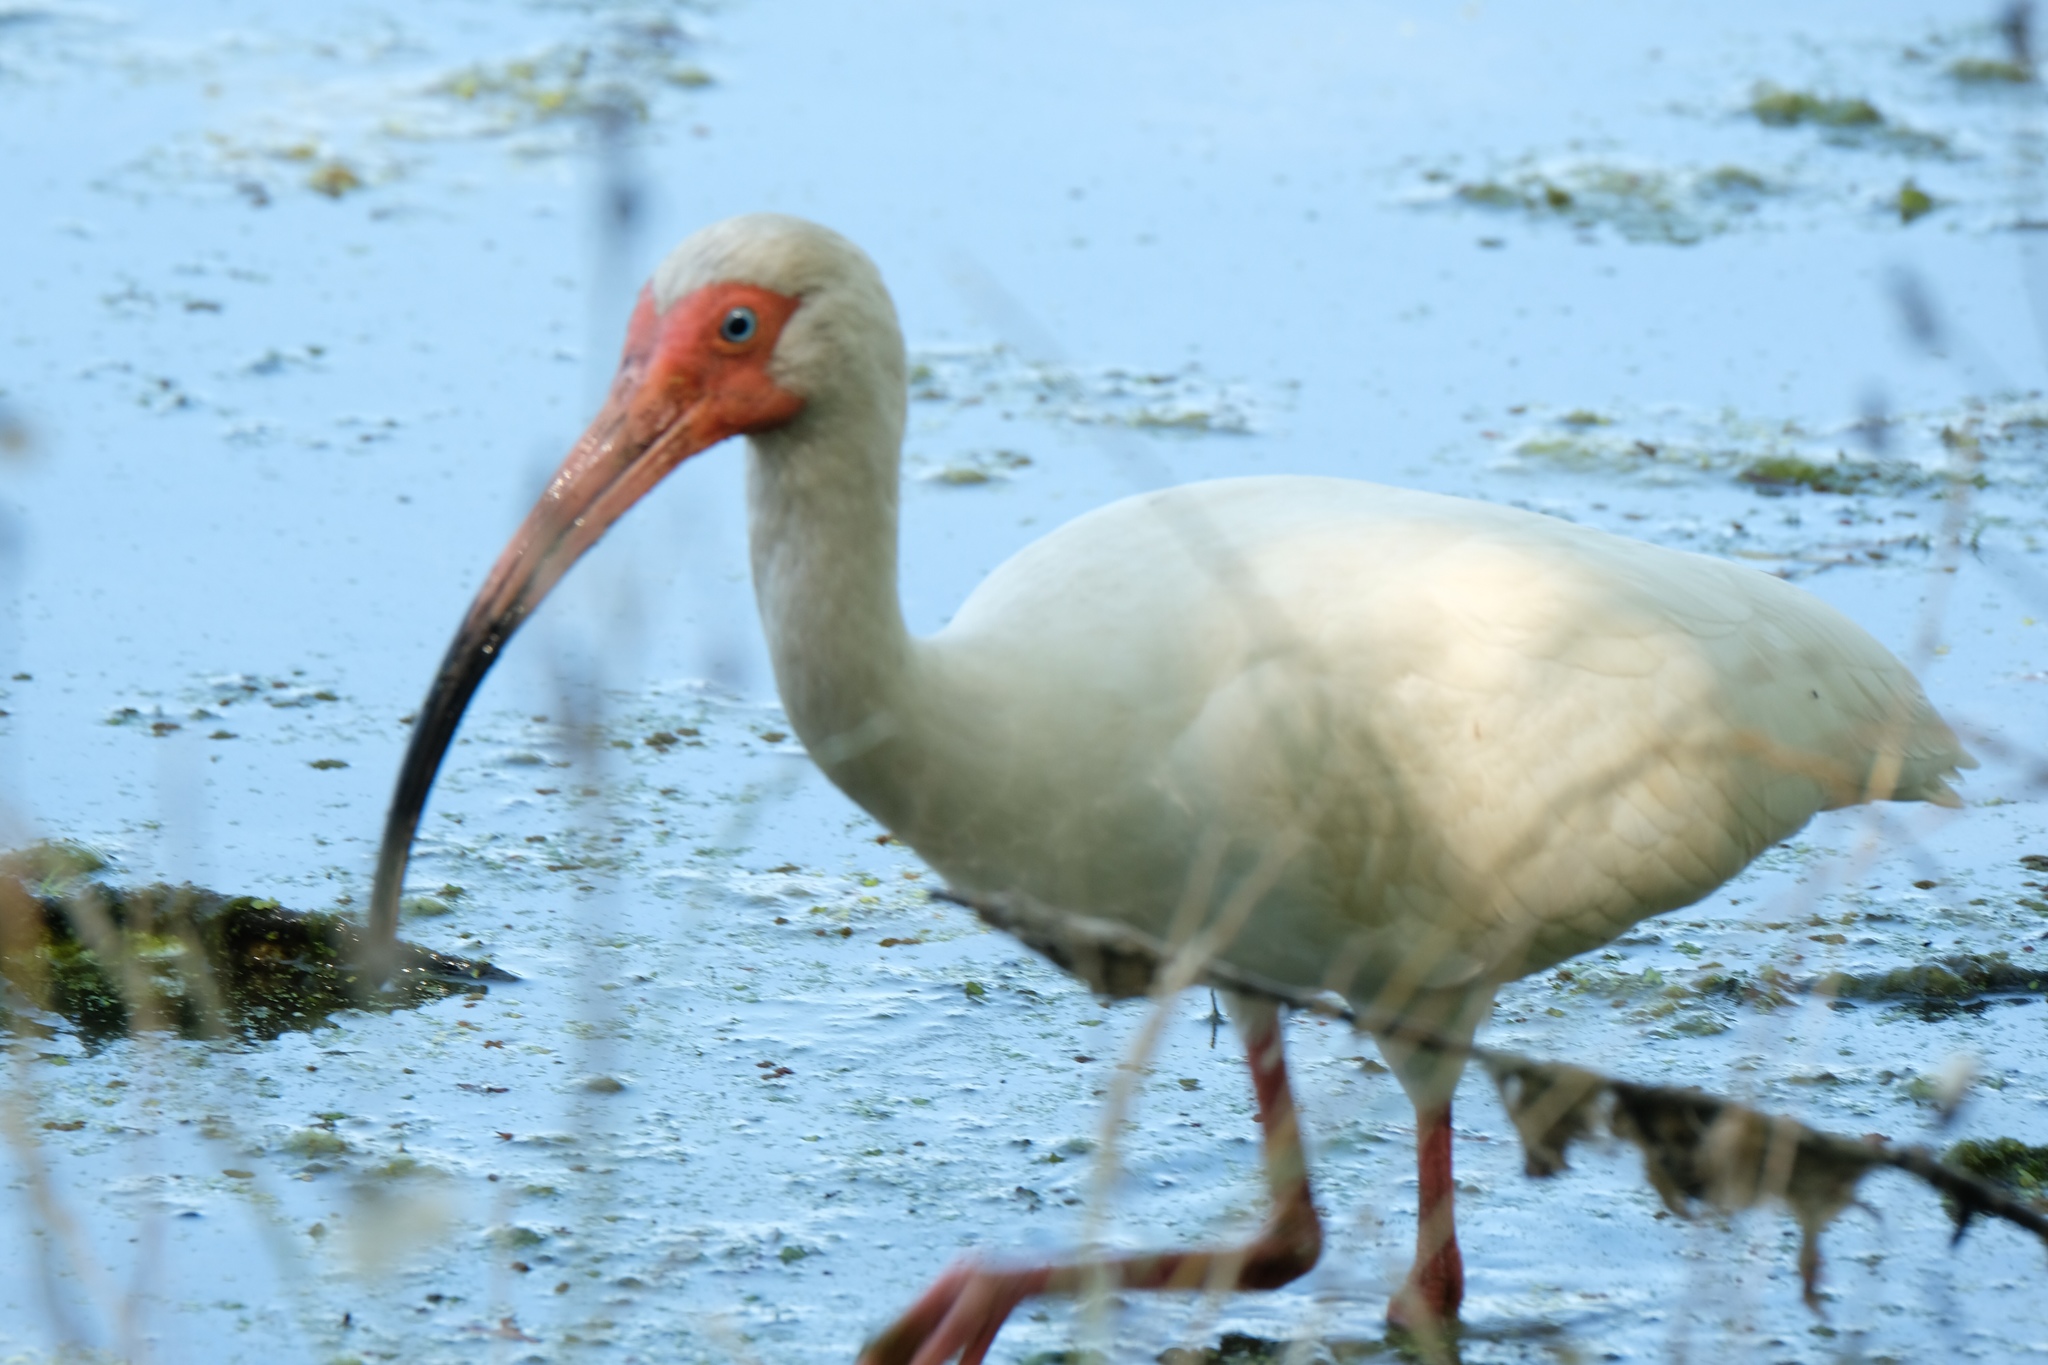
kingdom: Animalia
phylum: Chordata
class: Aves
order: Pelecaniformes
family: Threskiornithidae
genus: Eudocimus
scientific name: Eudocimus albus
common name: White ibis
